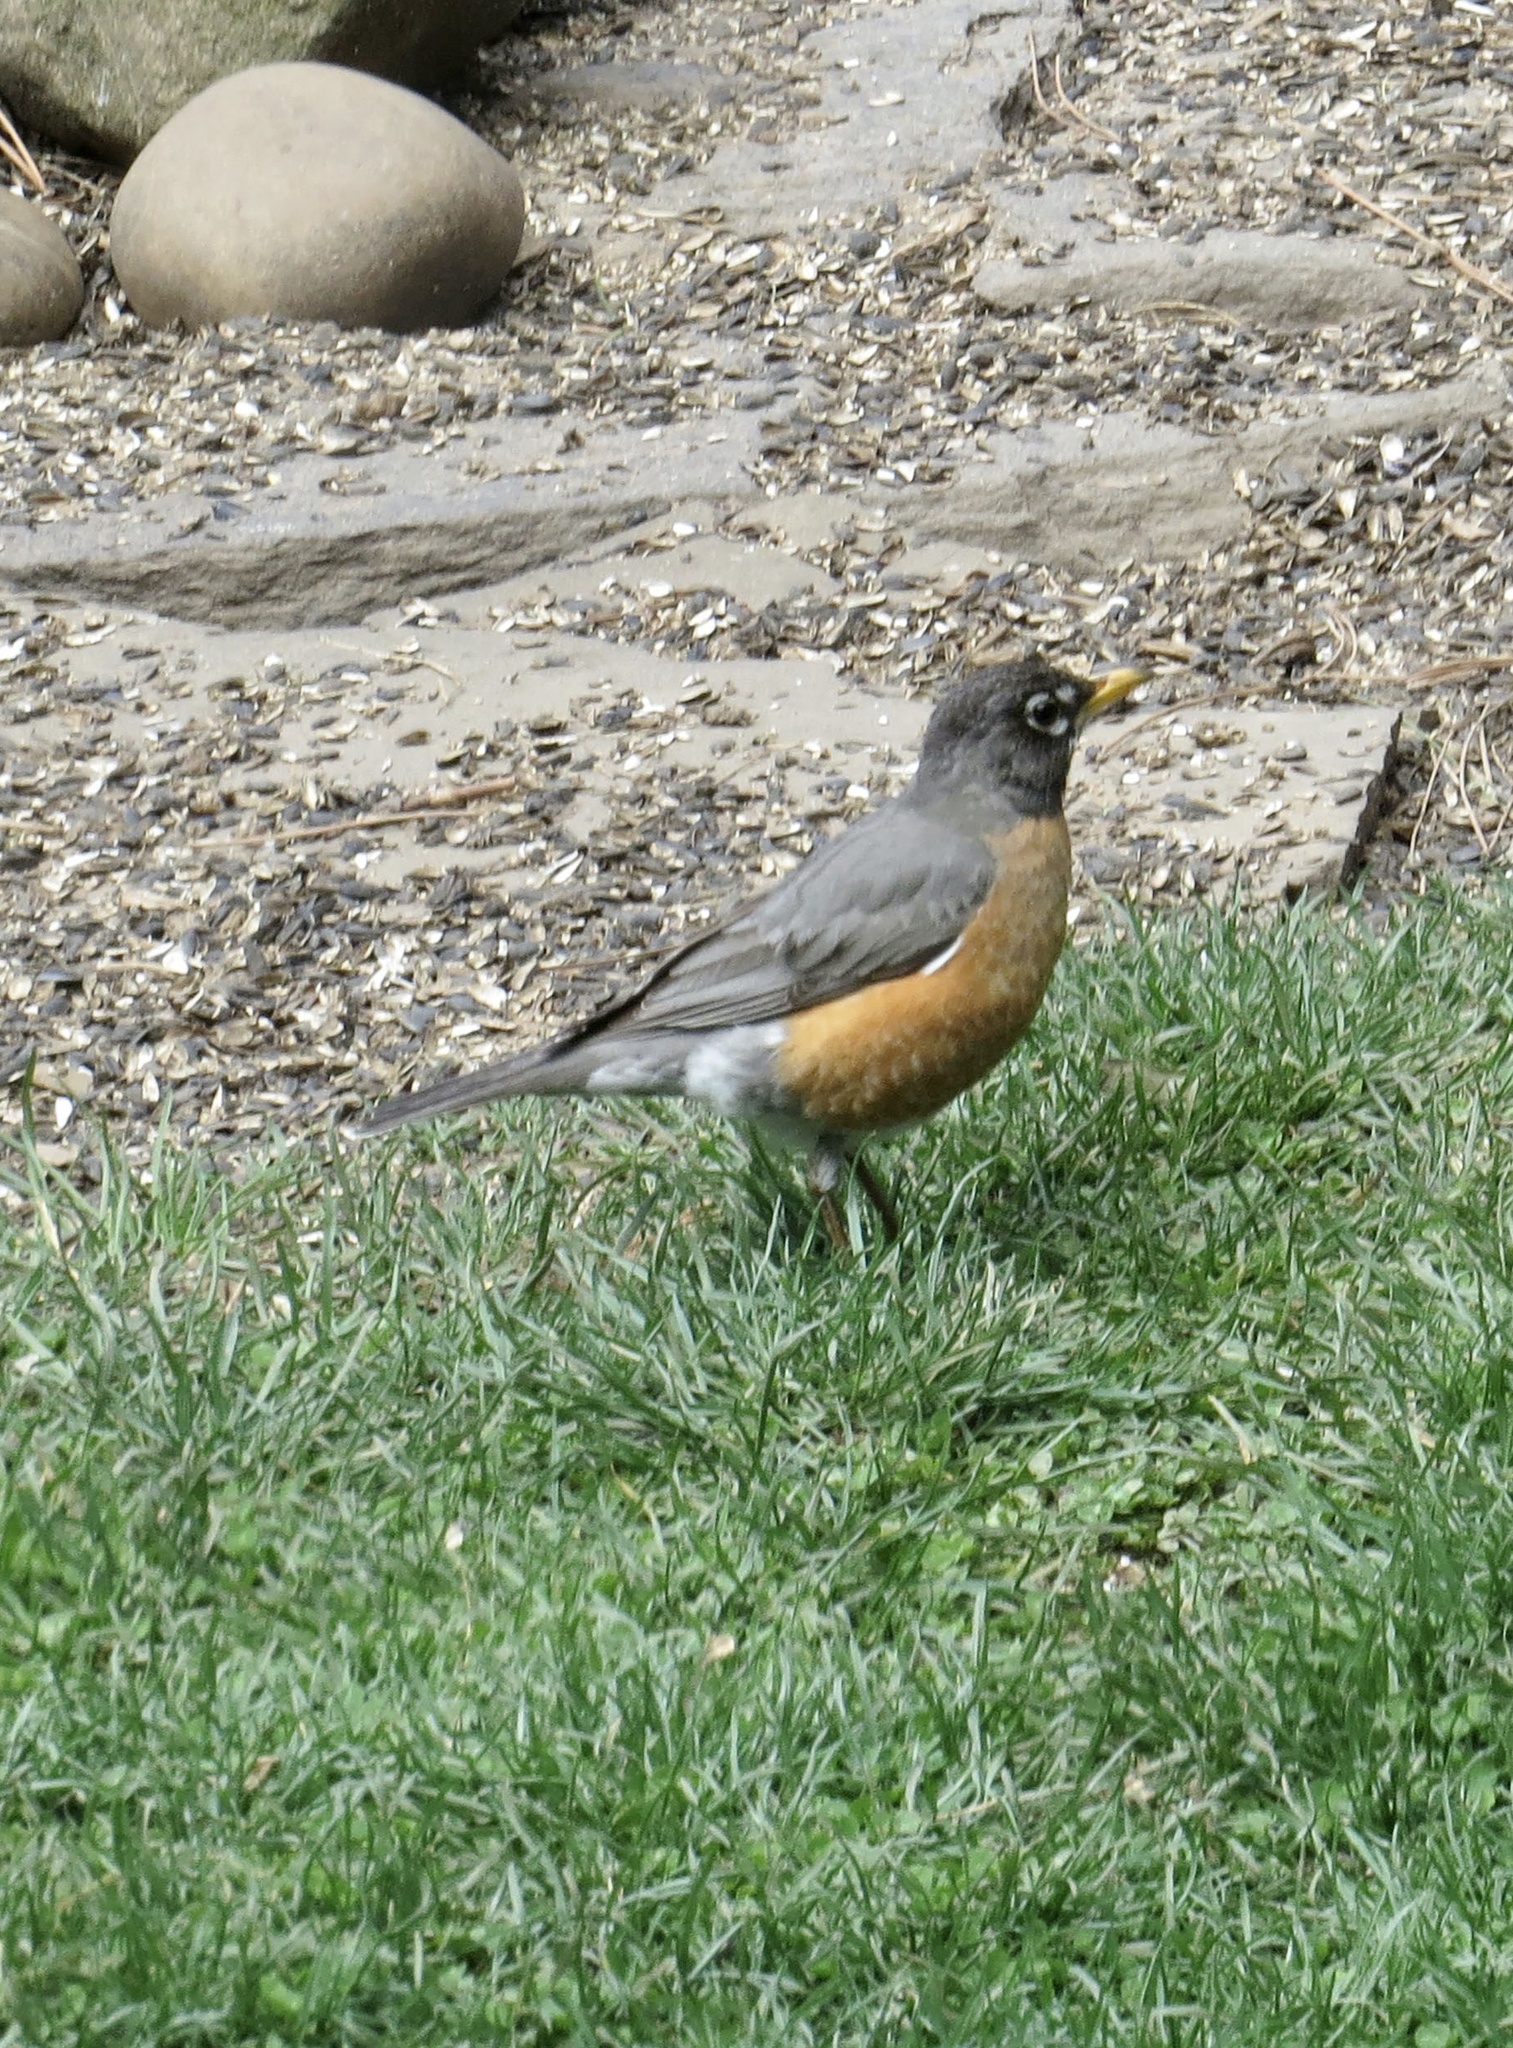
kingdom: Animalia
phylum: Chordata
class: Aves
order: Passeriformes
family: Turdidae
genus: Turdus
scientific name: Turdus migratorius
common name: American robin
